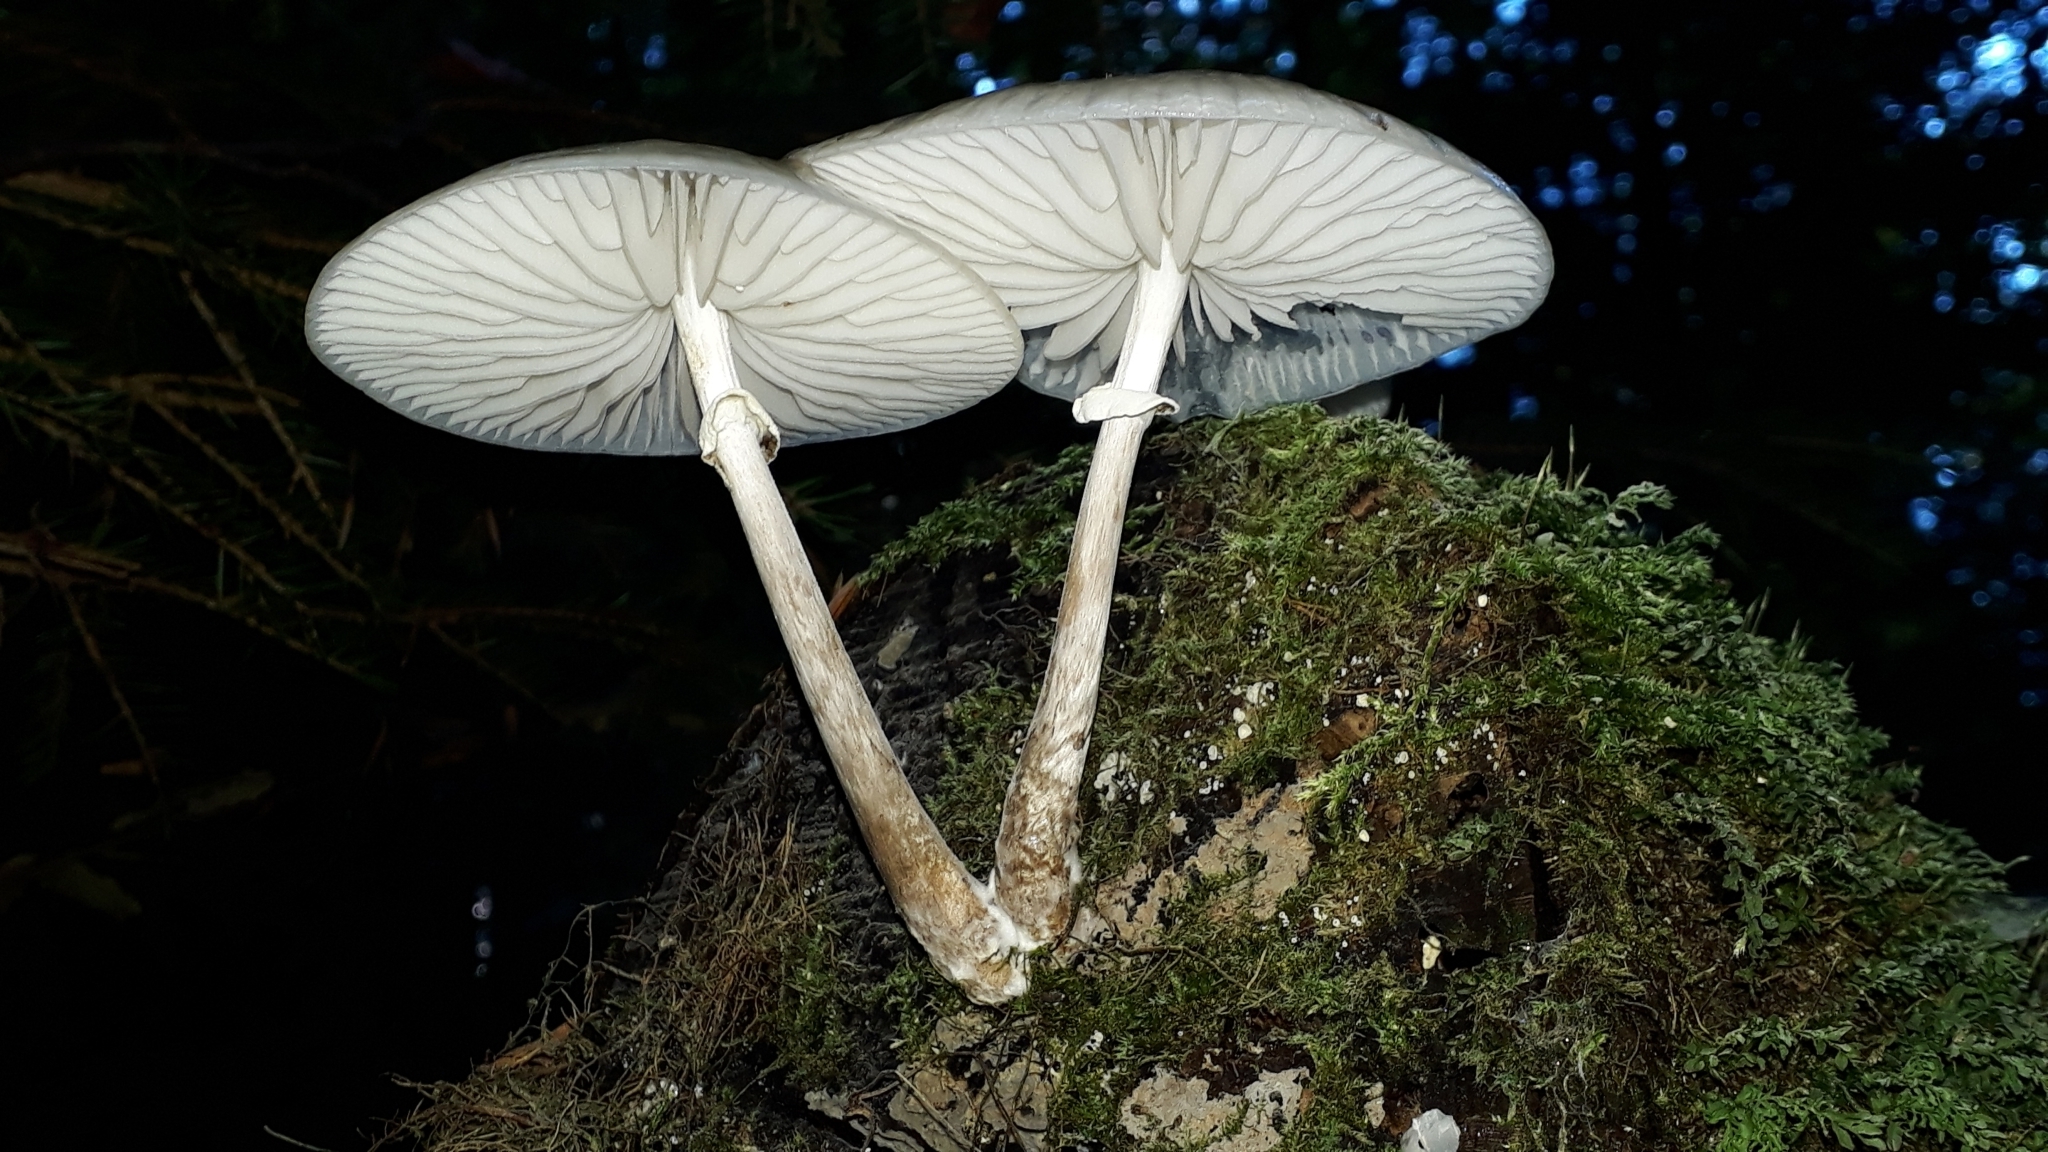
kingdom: Fungi
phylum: Basidiomycota
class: Agaricomycetes
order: Agaricales
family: Physalacriaceae
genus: Mucidula
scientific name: Mucidula mucida
